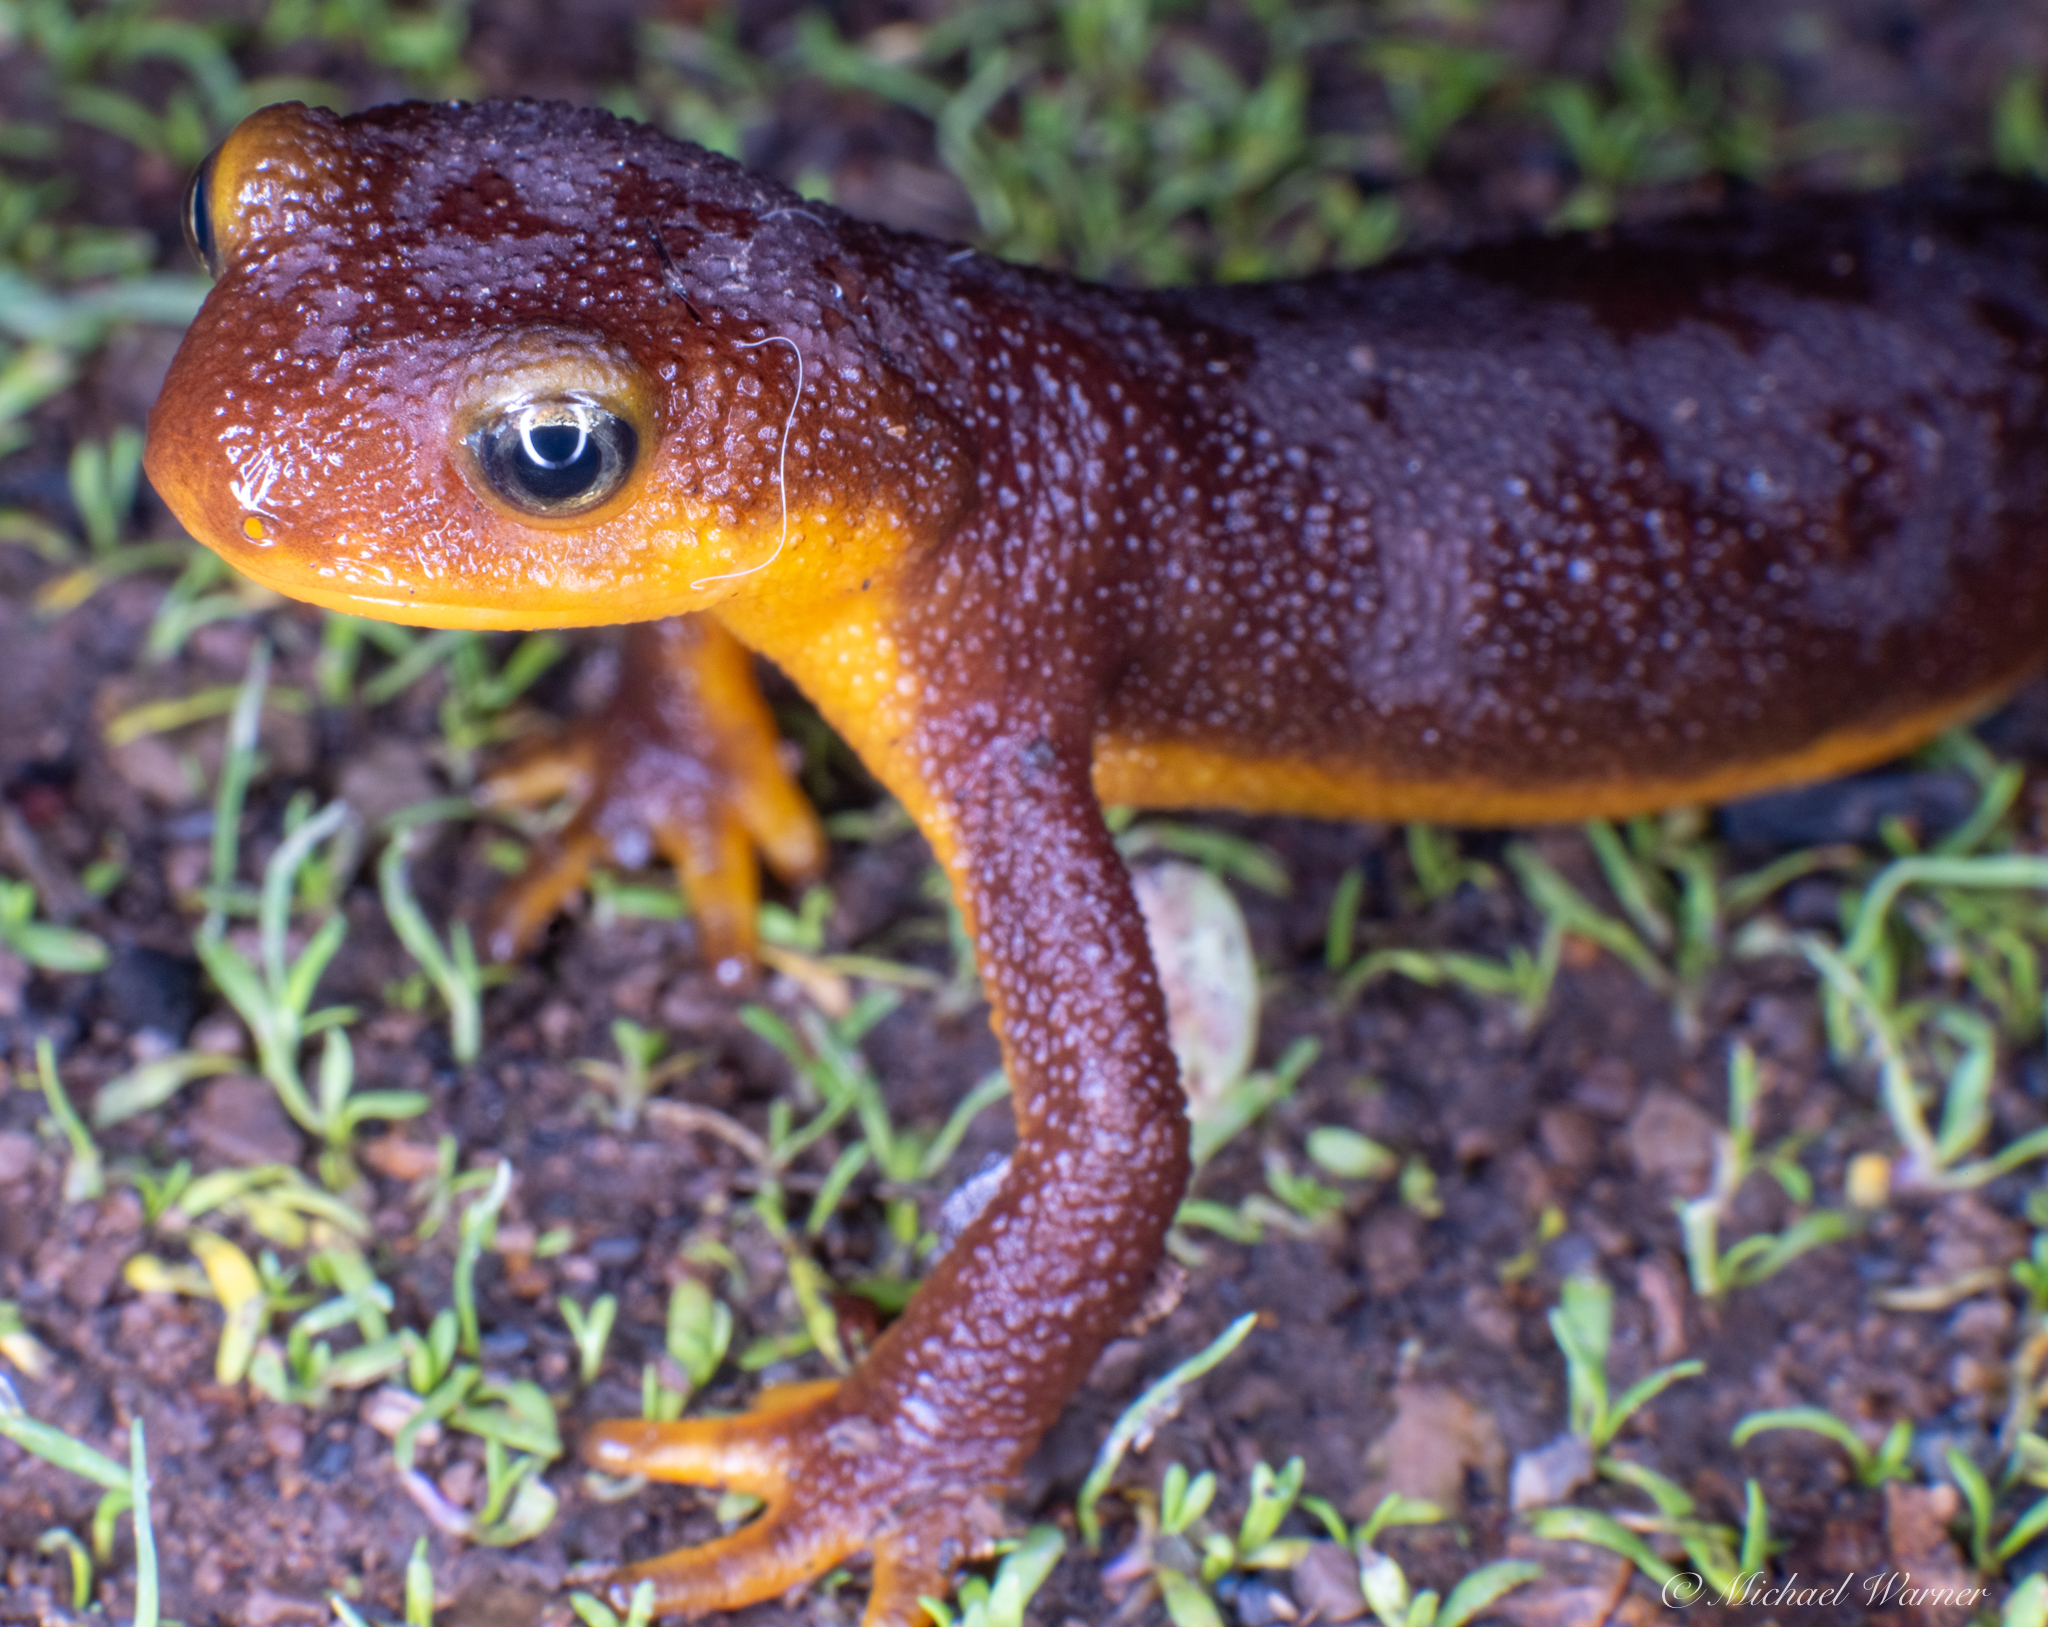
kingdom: Animalia
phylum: Chordata
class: Amphibia
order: Caudata
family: Salamandridae
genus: Taricha
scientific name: Taricha torosa
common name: California newt
